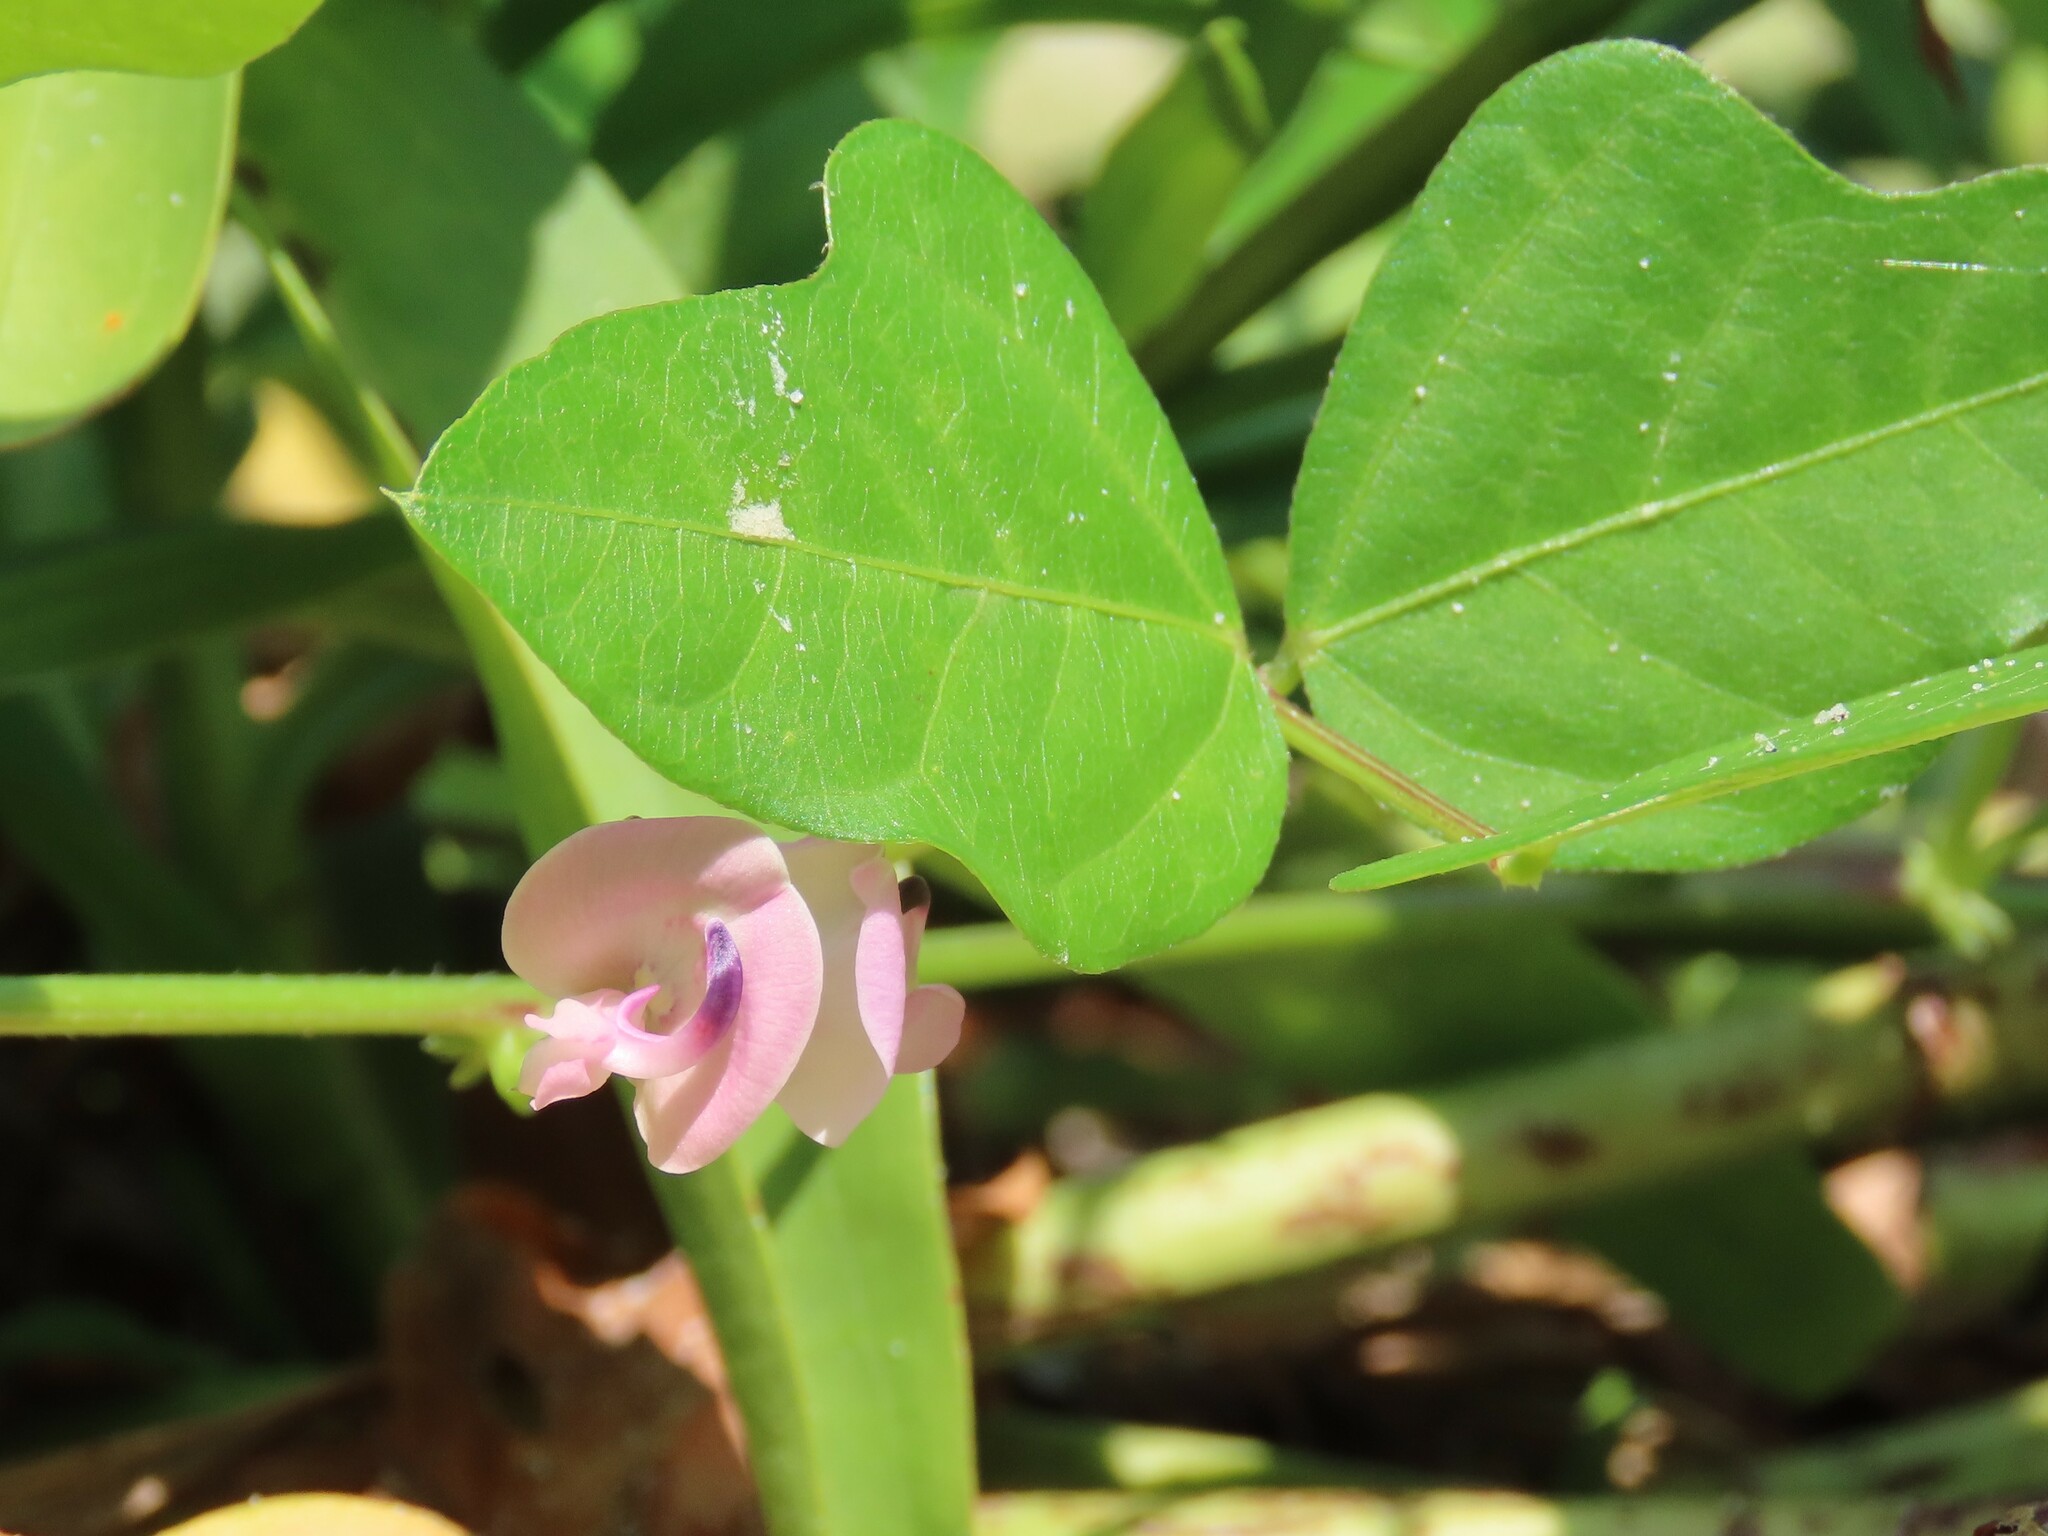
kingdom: Plantae
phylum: Tracheophyta
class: Magnoliopsida
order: Fabales
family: Fabaceae
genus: Strophostyles
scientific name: Strophostyles helvola
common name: Trailing wild bean
